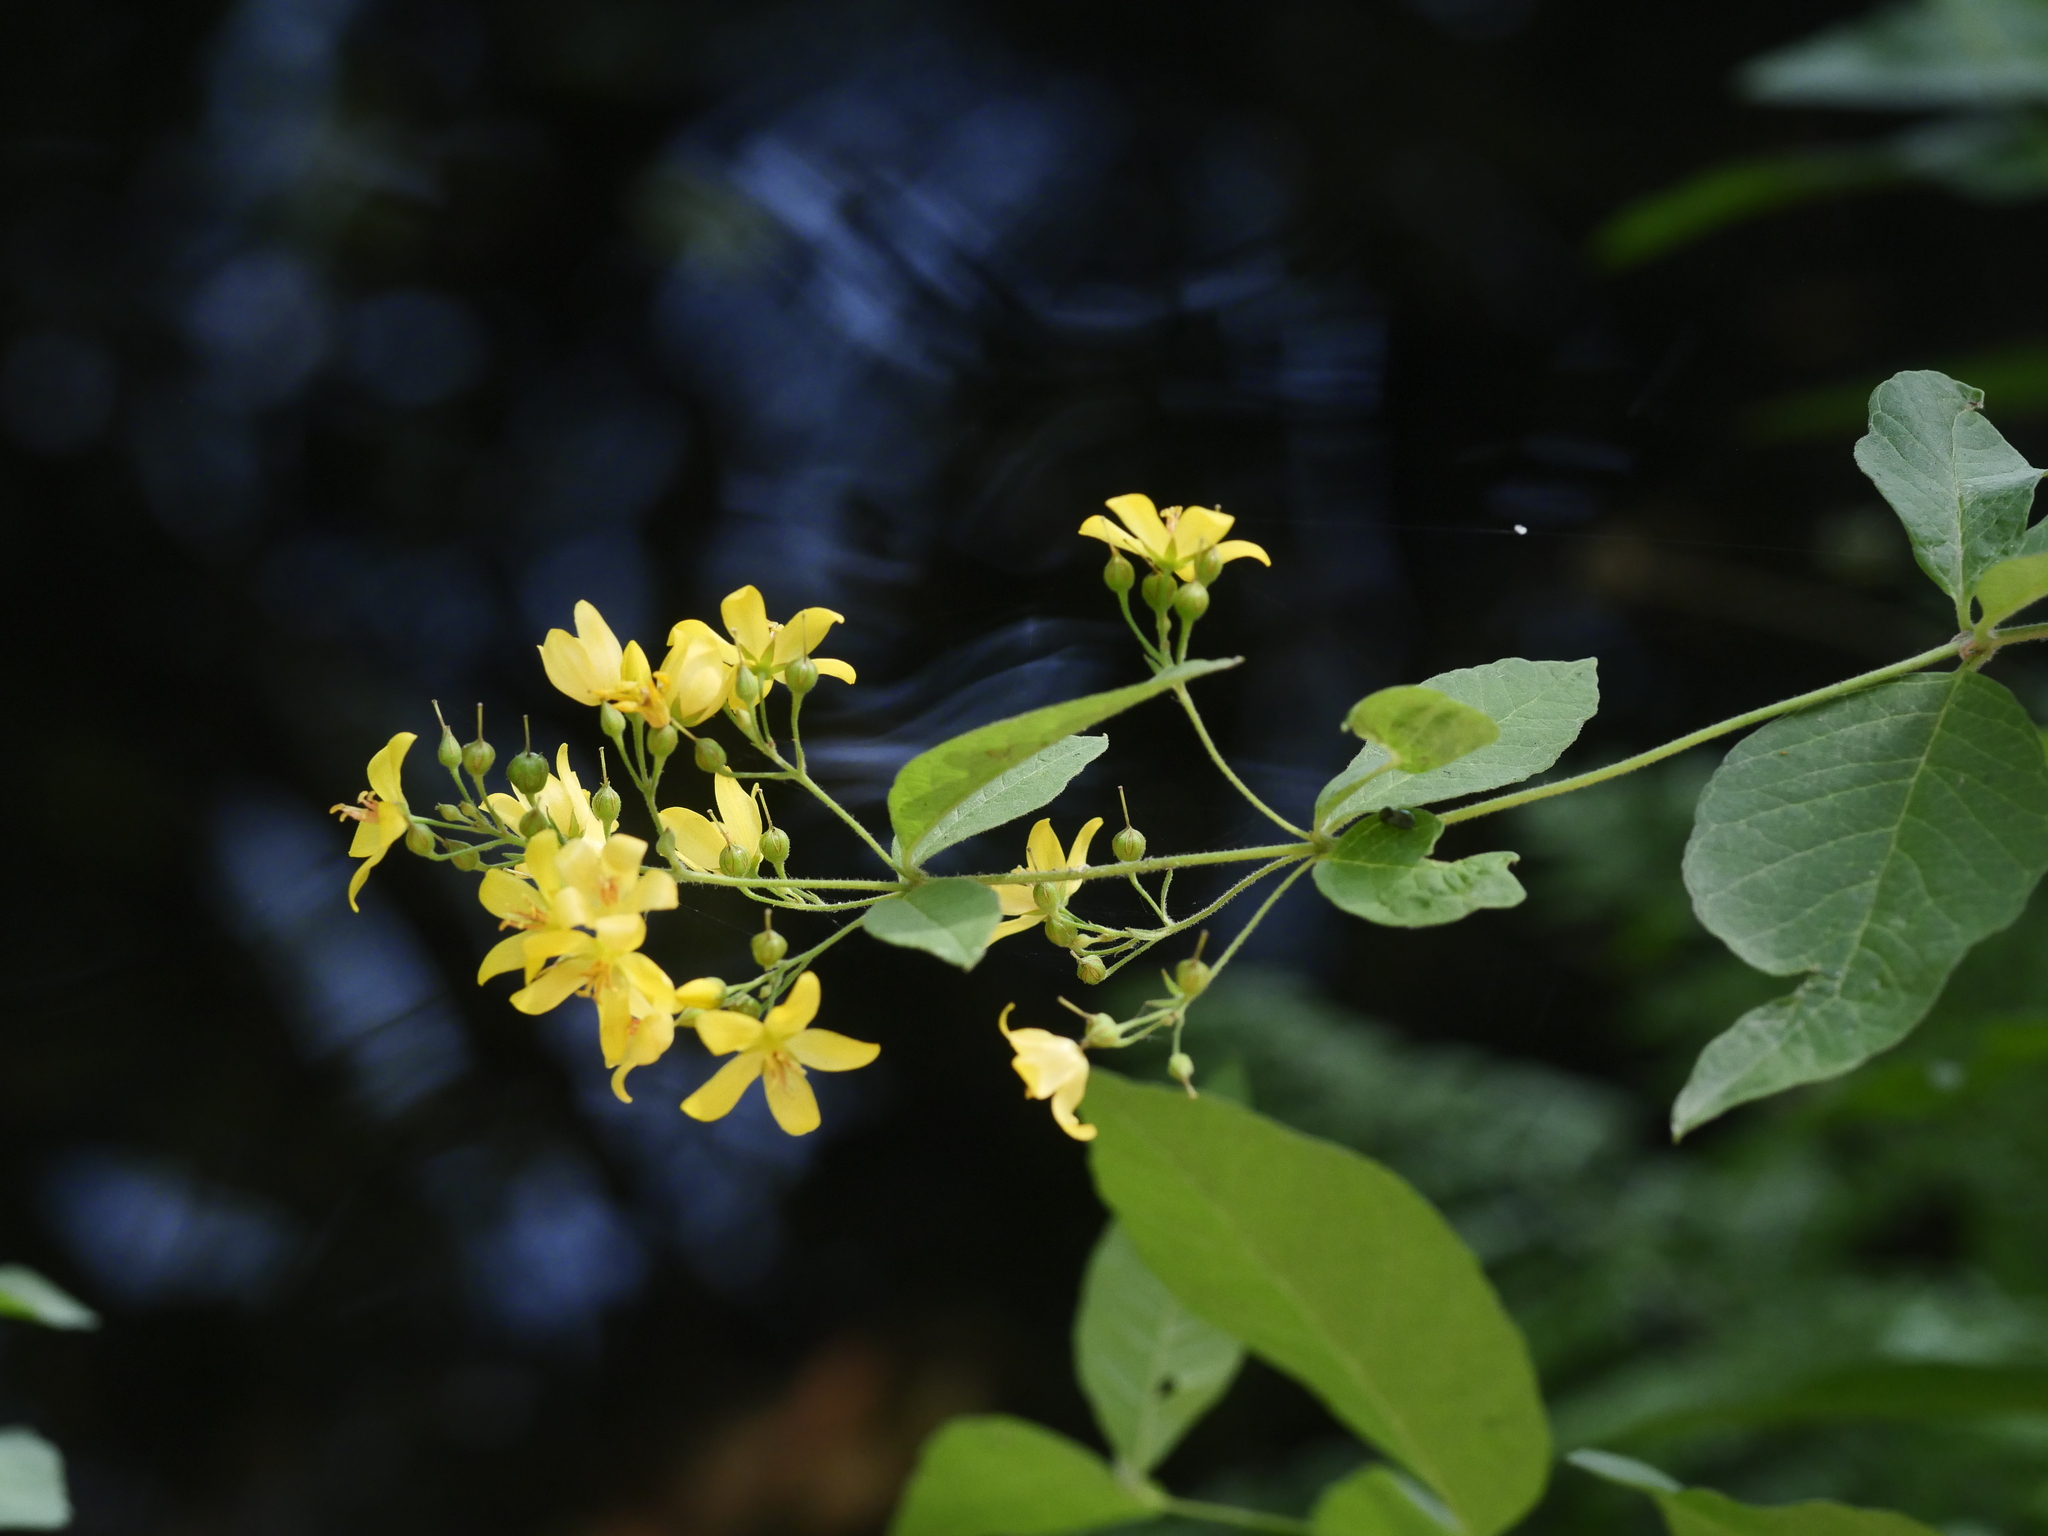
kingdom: Plantae
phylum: Tracheophyta
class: Magnoliopsida
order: Ericales
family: Primulaceae
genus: Lysimachia
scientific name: Lysimachia vulgaris
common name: Yellow loosestrife
